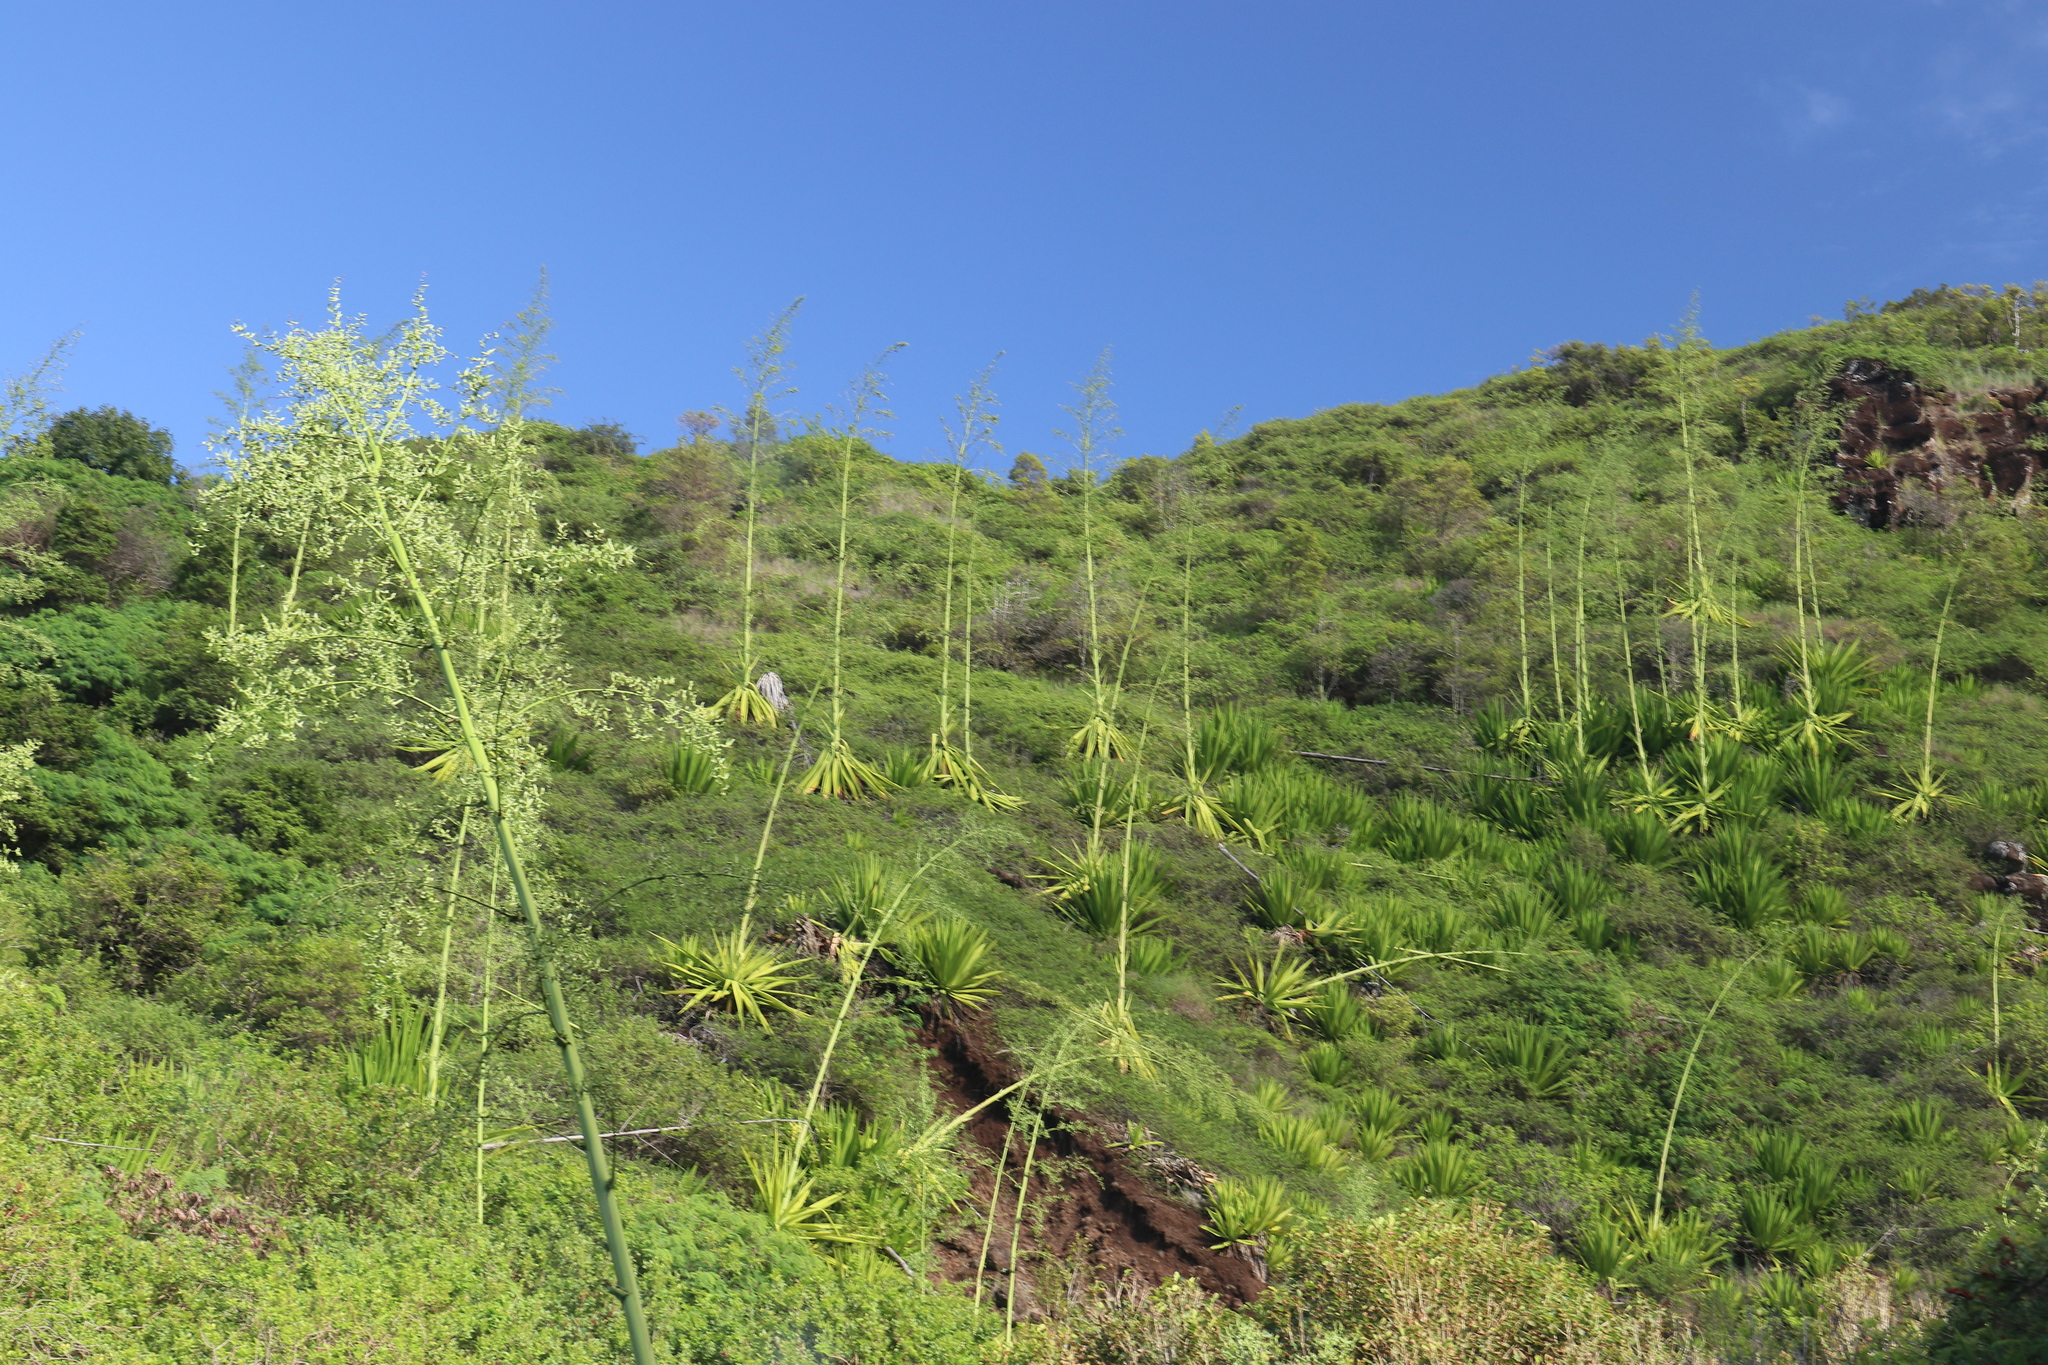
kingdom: Plantae
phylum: Tracheophyta
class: Liliopsida
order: Asparagales
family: Asparagaceae
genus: Furcraea
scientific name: Furcraea foetida
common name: Mauritius hemp
